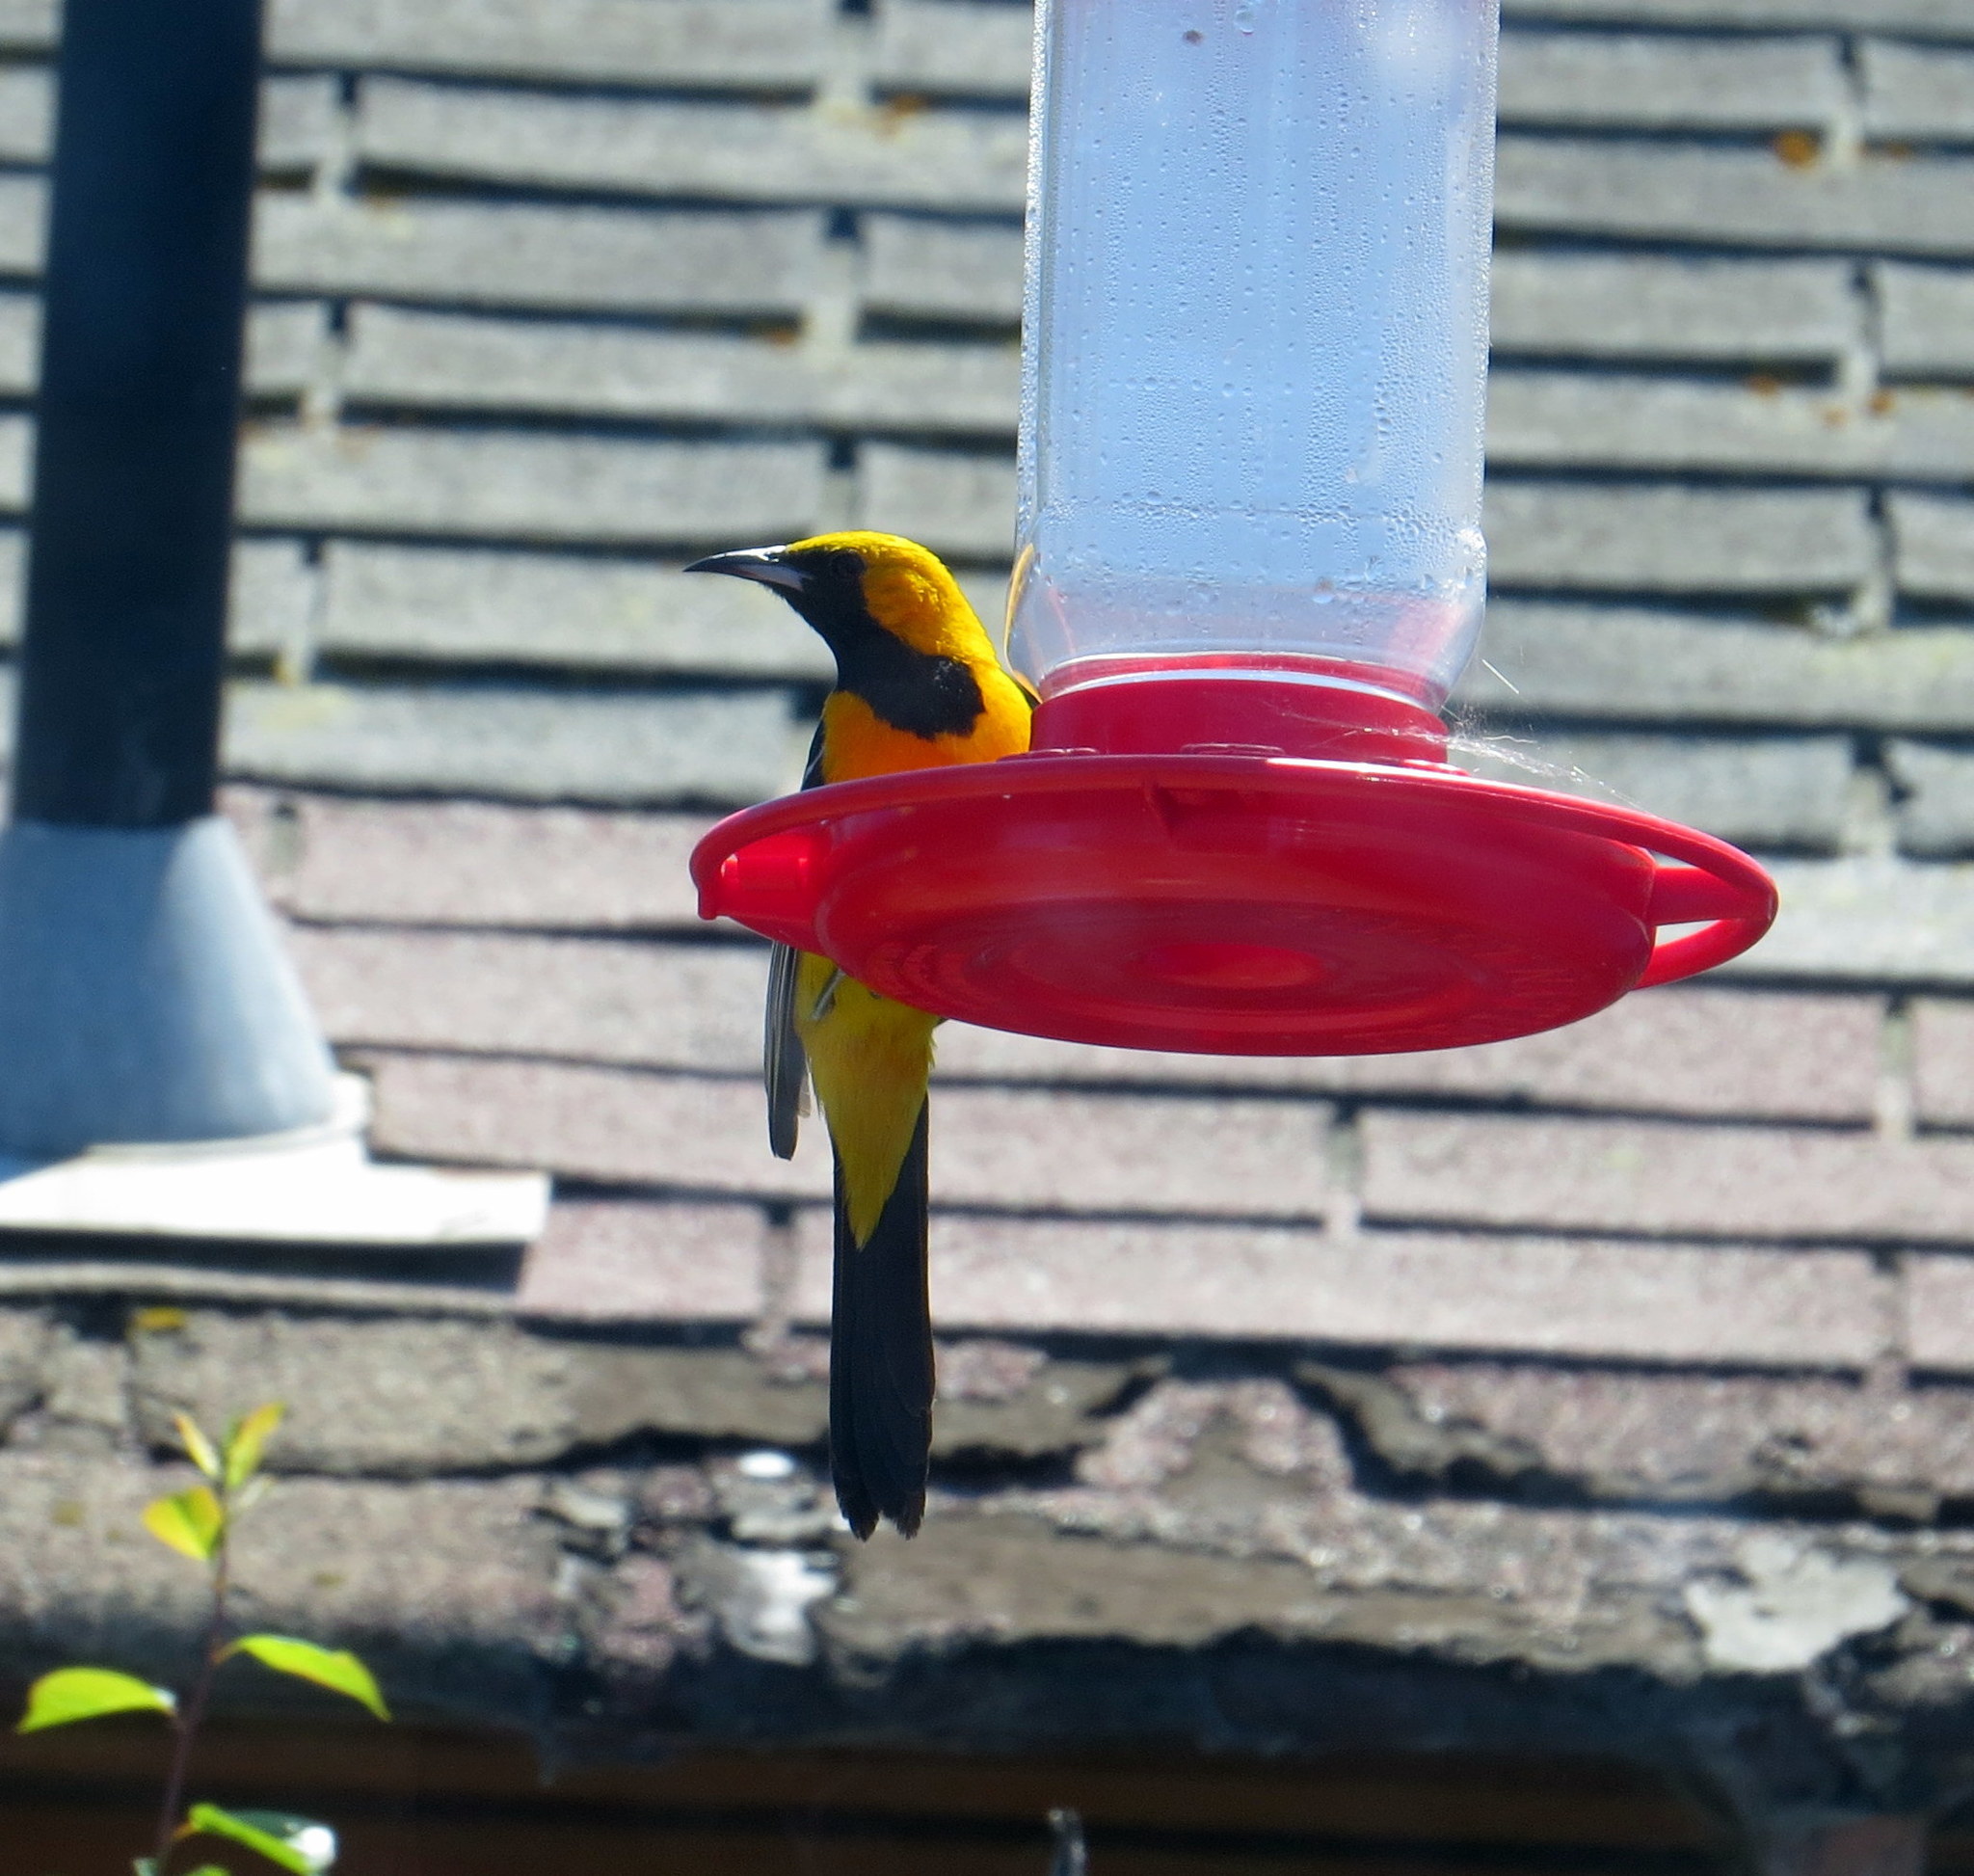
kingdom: Animalia
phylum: Chordata
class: Aves
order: Passeriformes
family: Icteridae
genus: Icterus
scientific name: Icterus cucullatus
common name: Hooded oriole
